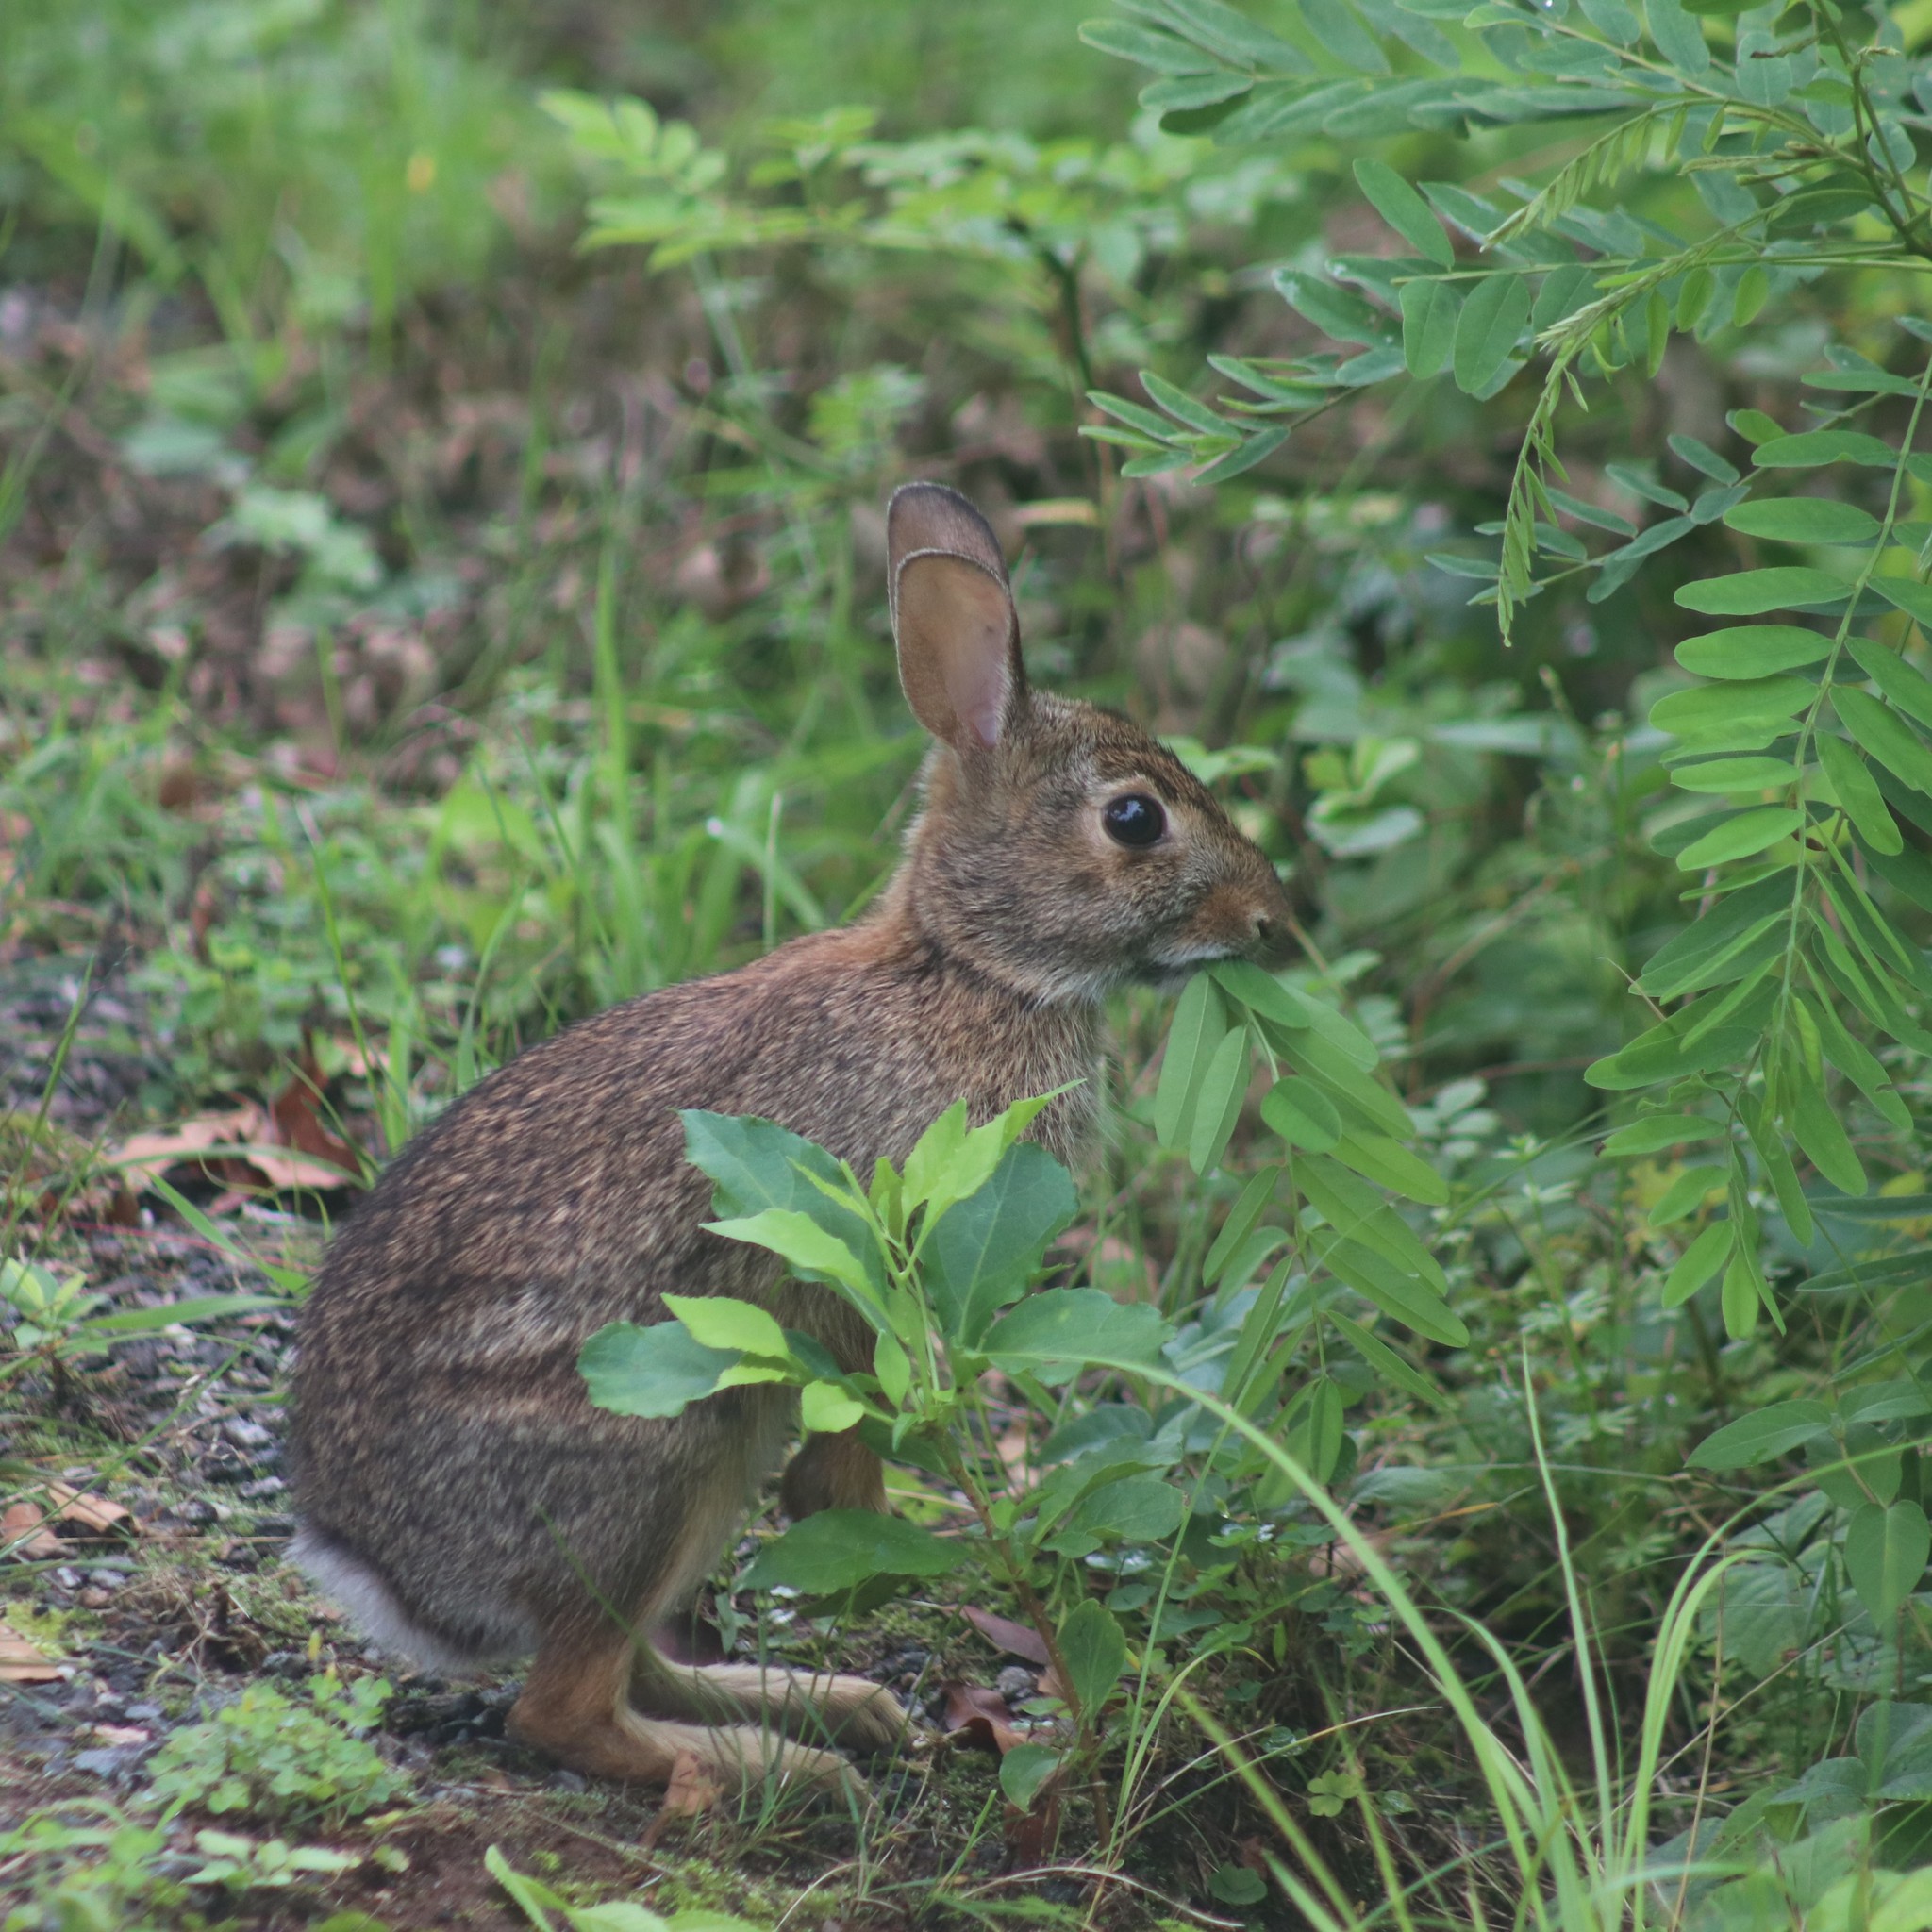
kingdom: Animalia
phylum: Chordata
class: Mammalia
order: Lagomorpha
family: Leporidae
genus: Sylvilagus
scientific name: Sylvilagus floridanus
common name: Eastern cottontail
